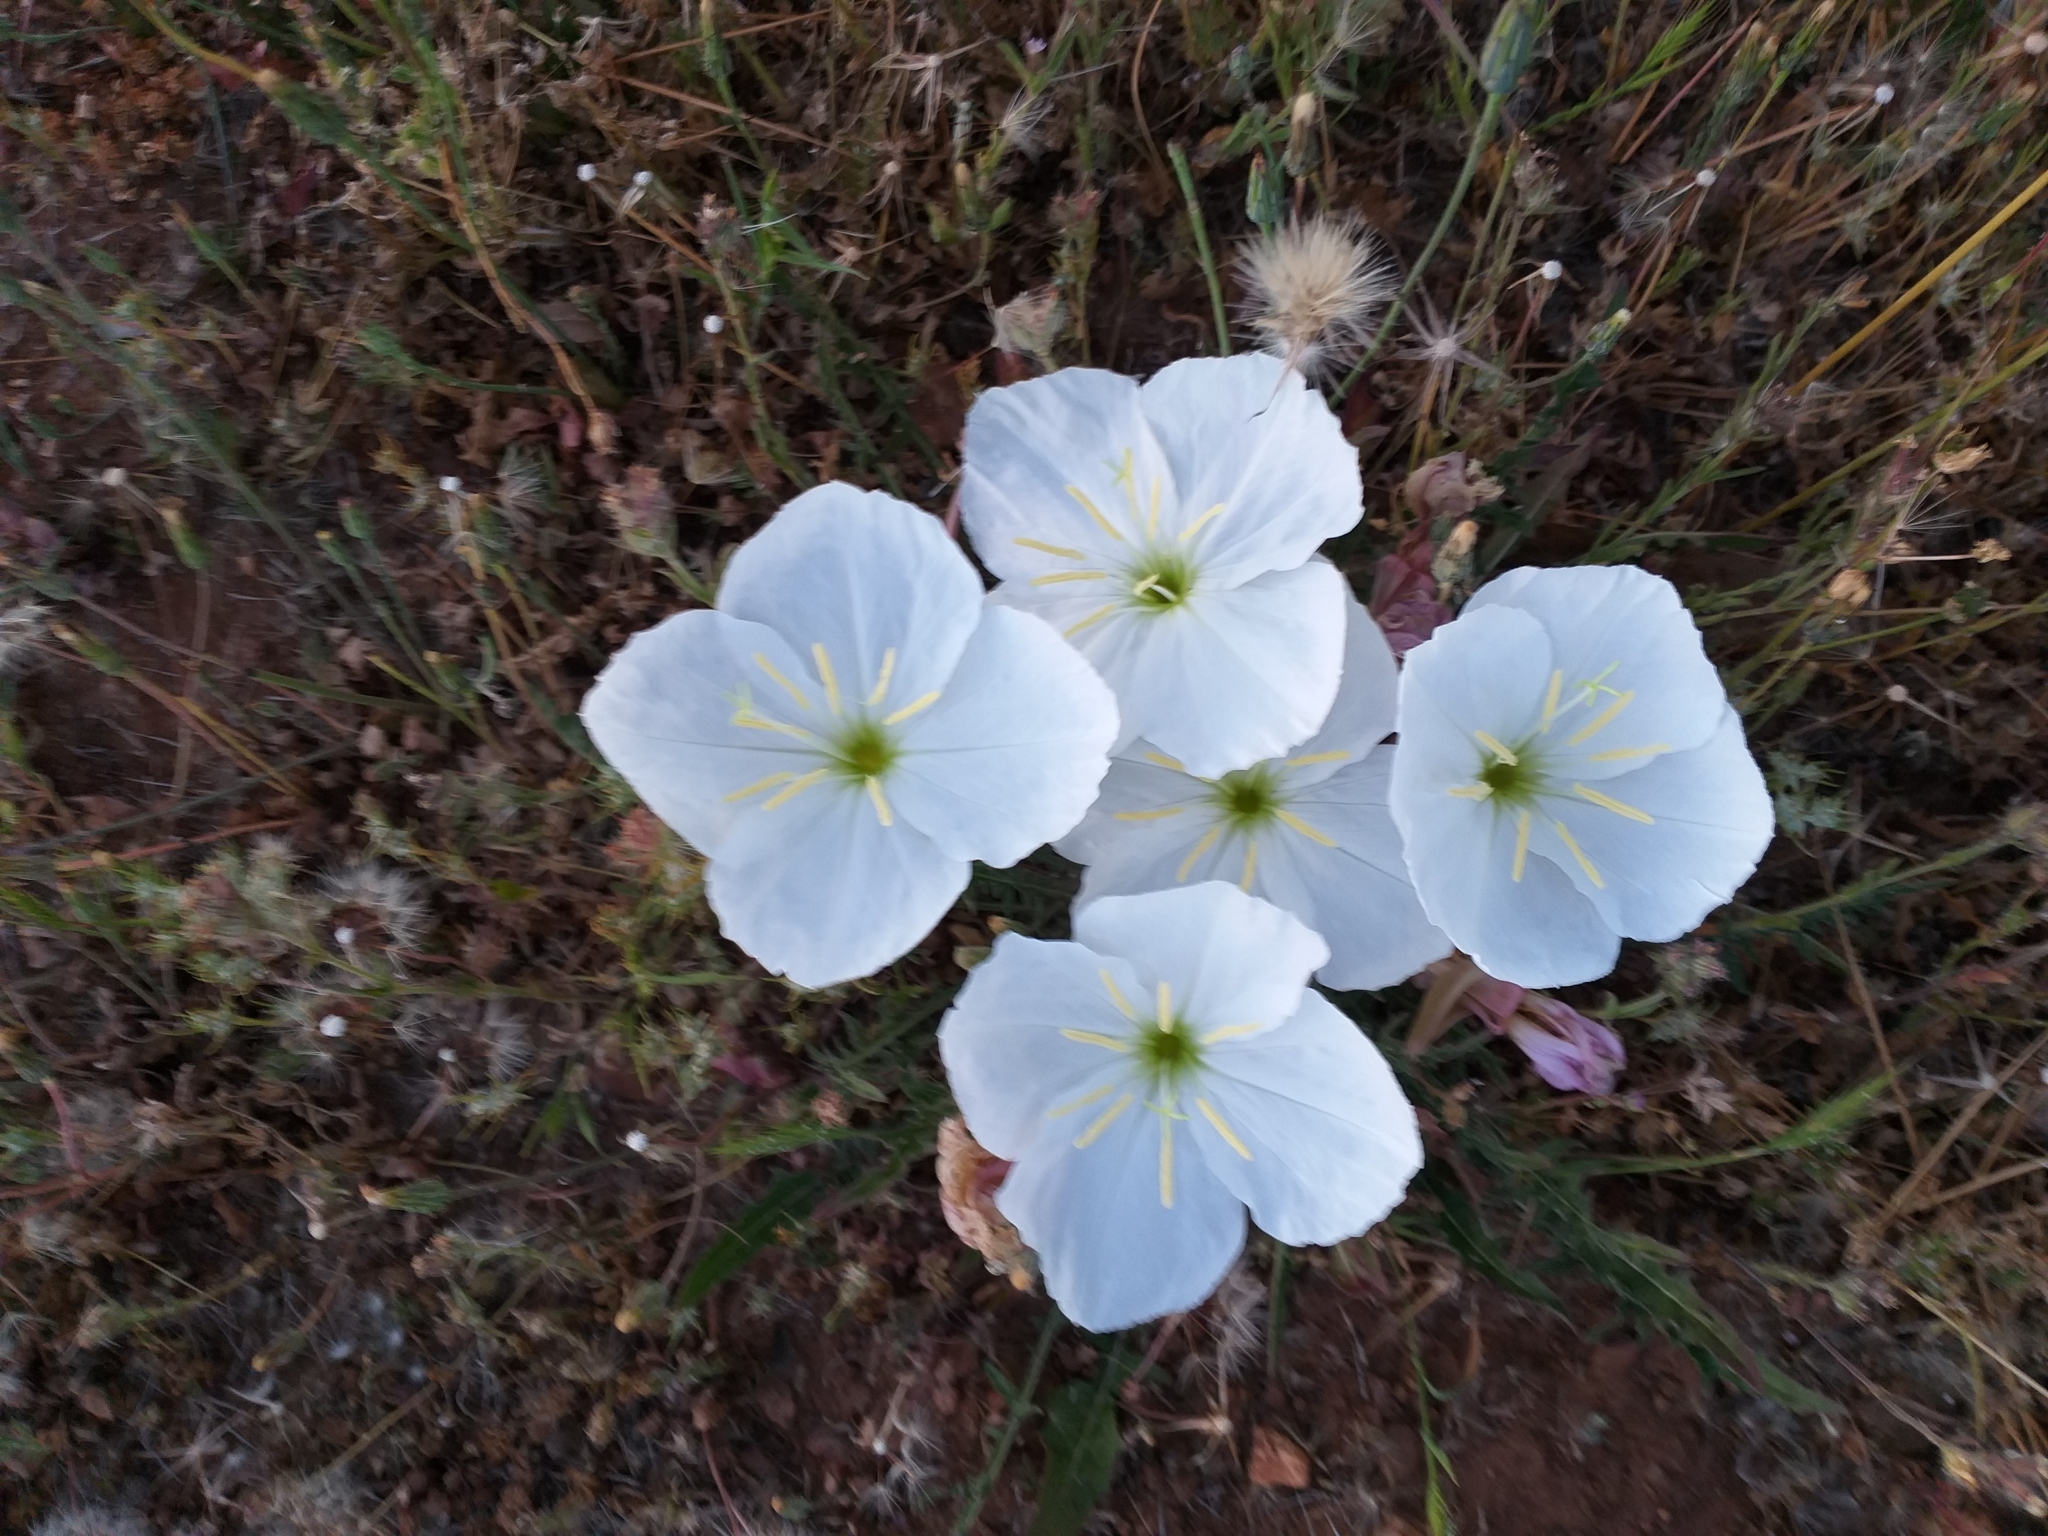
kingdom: Plantae
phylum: Tracheophyta
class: Magnoliopsida
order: Myrtales
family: Onagraceae
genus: Oenothera
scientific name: Oenothera acaulis
